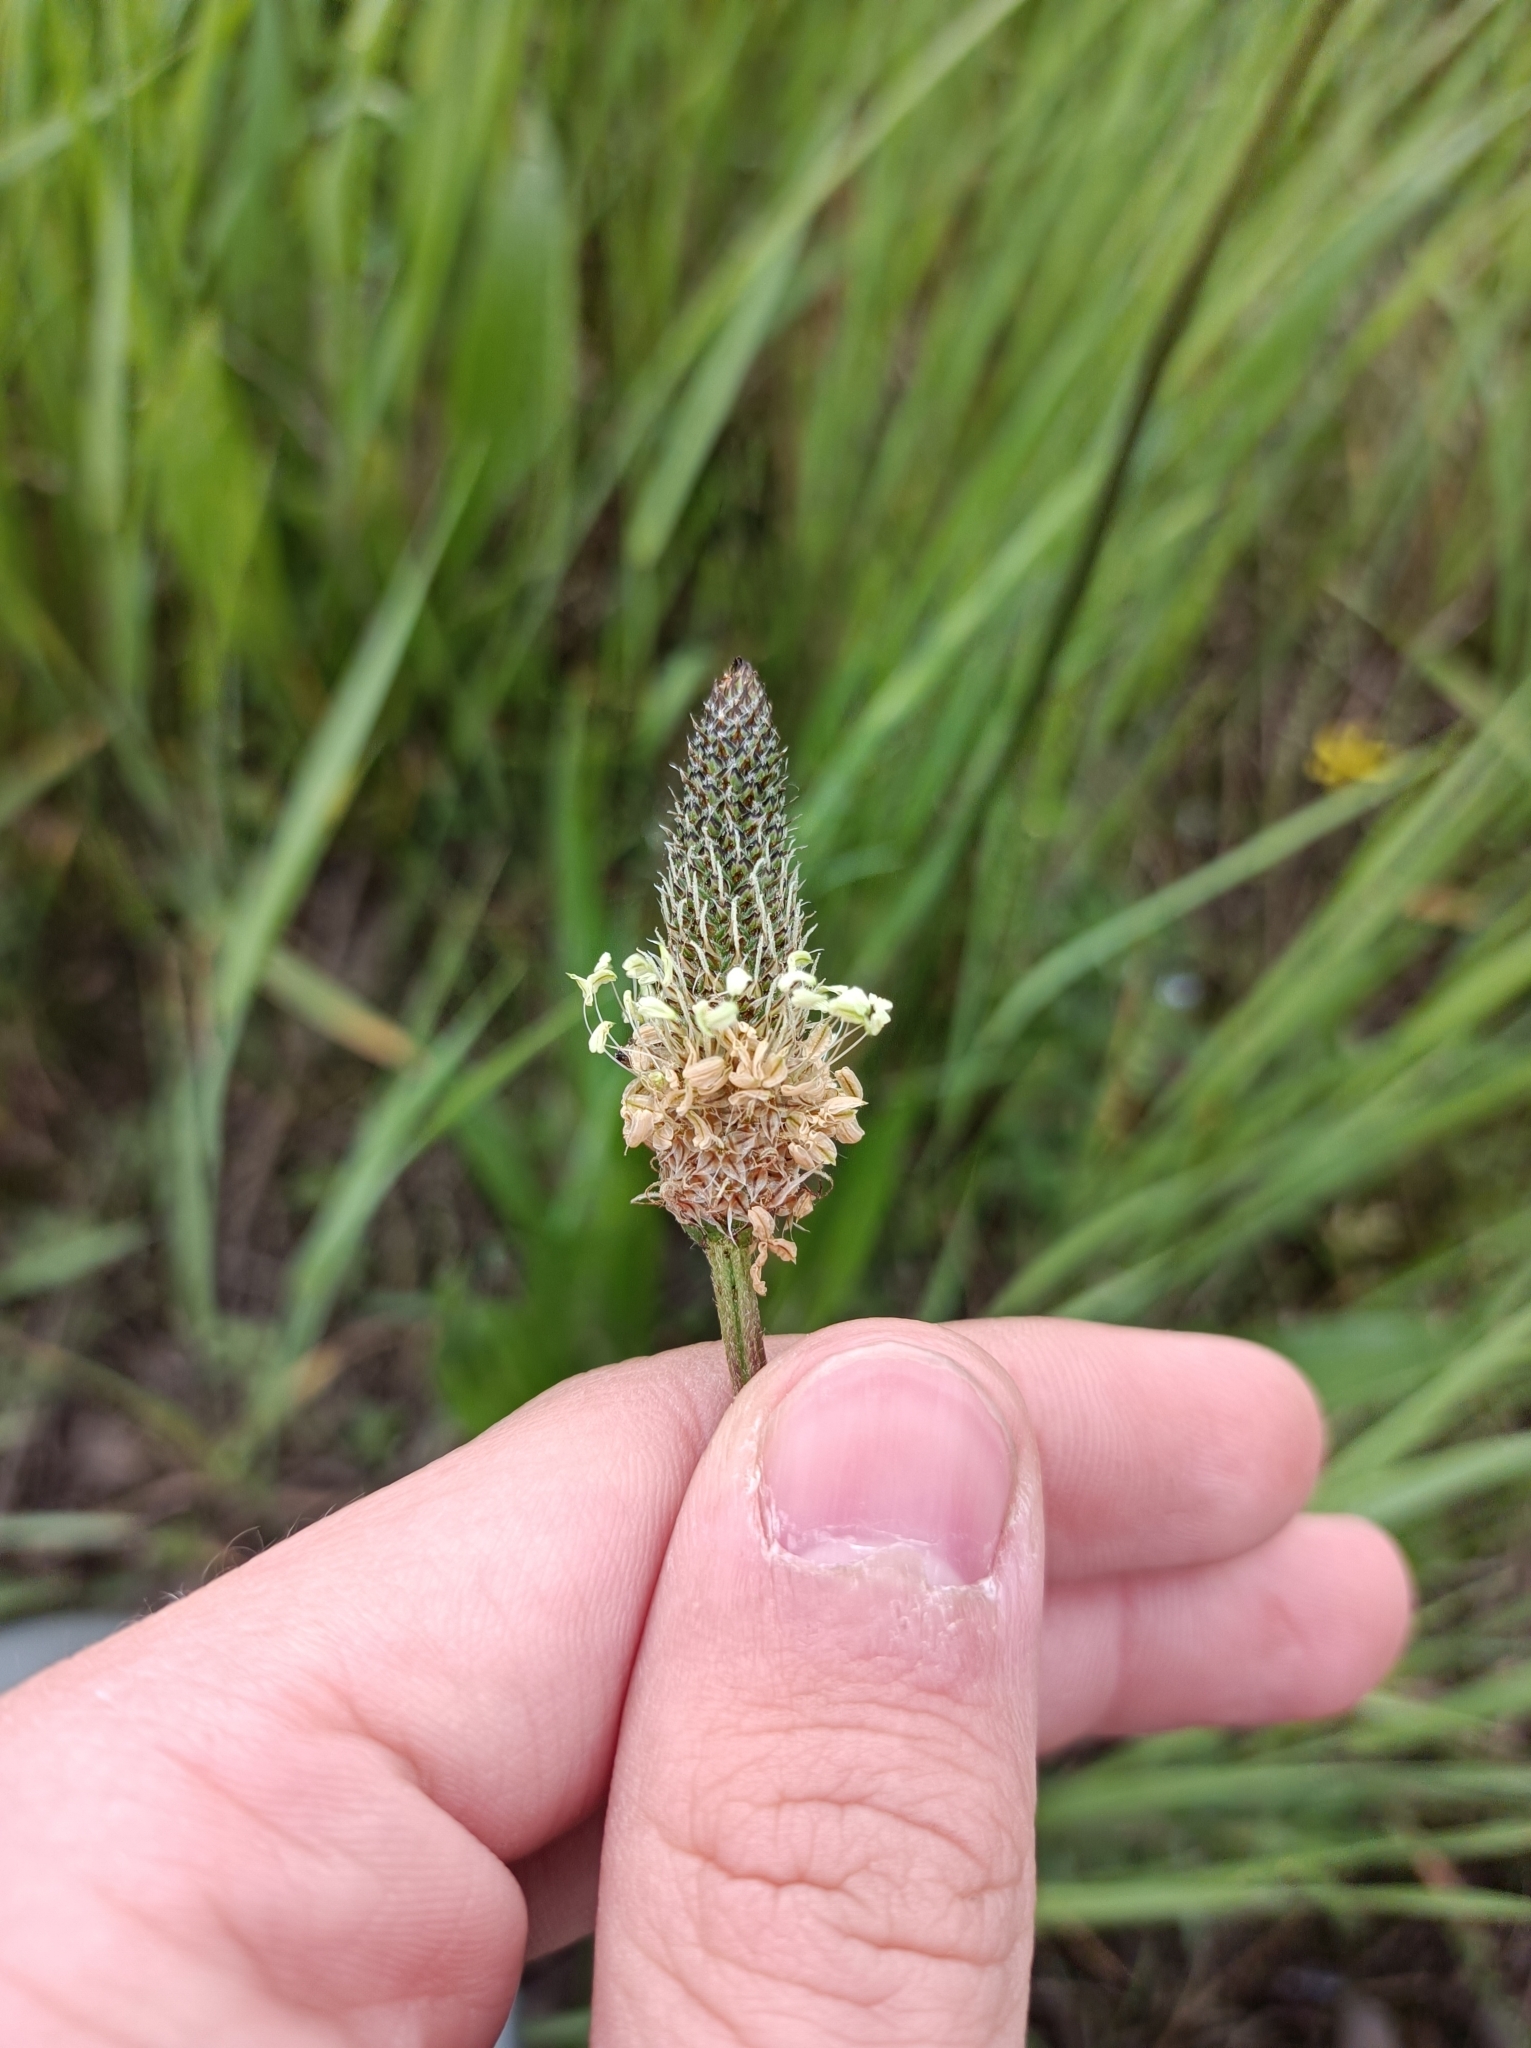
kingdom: Plantae
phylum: Tracheophyta
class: Magnoliopsida
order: Lamiales
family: Plantaginaceae
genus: Plantago
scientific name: Plantago lanceolata
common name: Ribwort plantain
